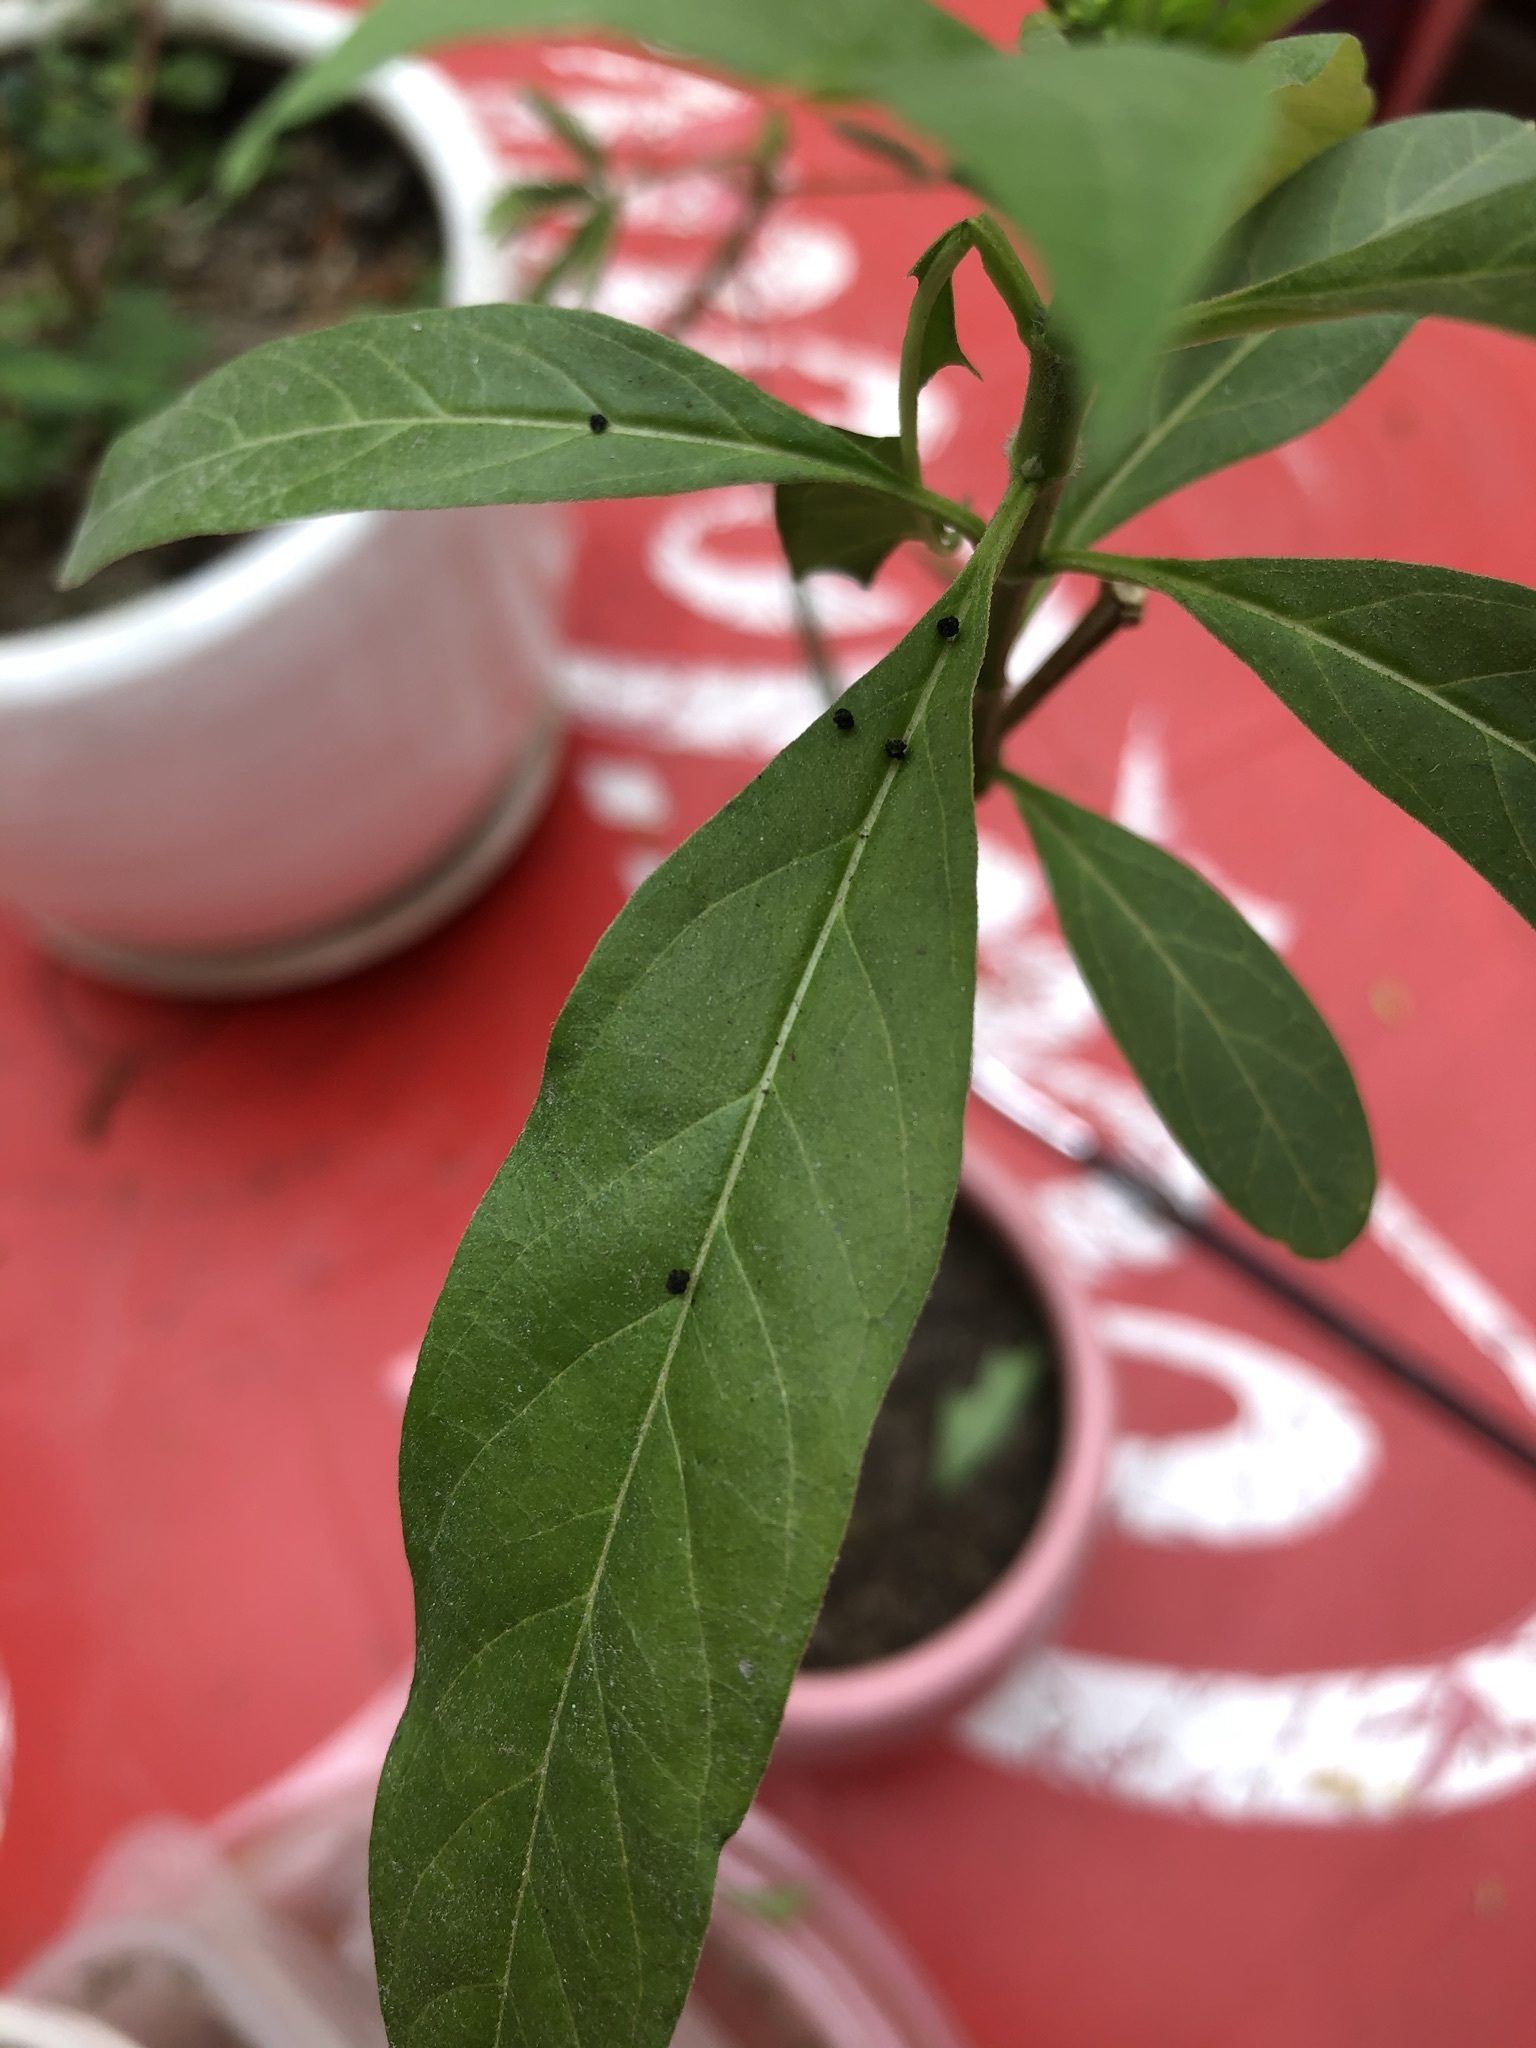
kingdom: Animalia
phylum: Arthropoda
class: Insecta
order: Lepidoptera
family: Nymphalidae
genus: Danaus
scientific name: Danaus plexippus
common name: Monarch
